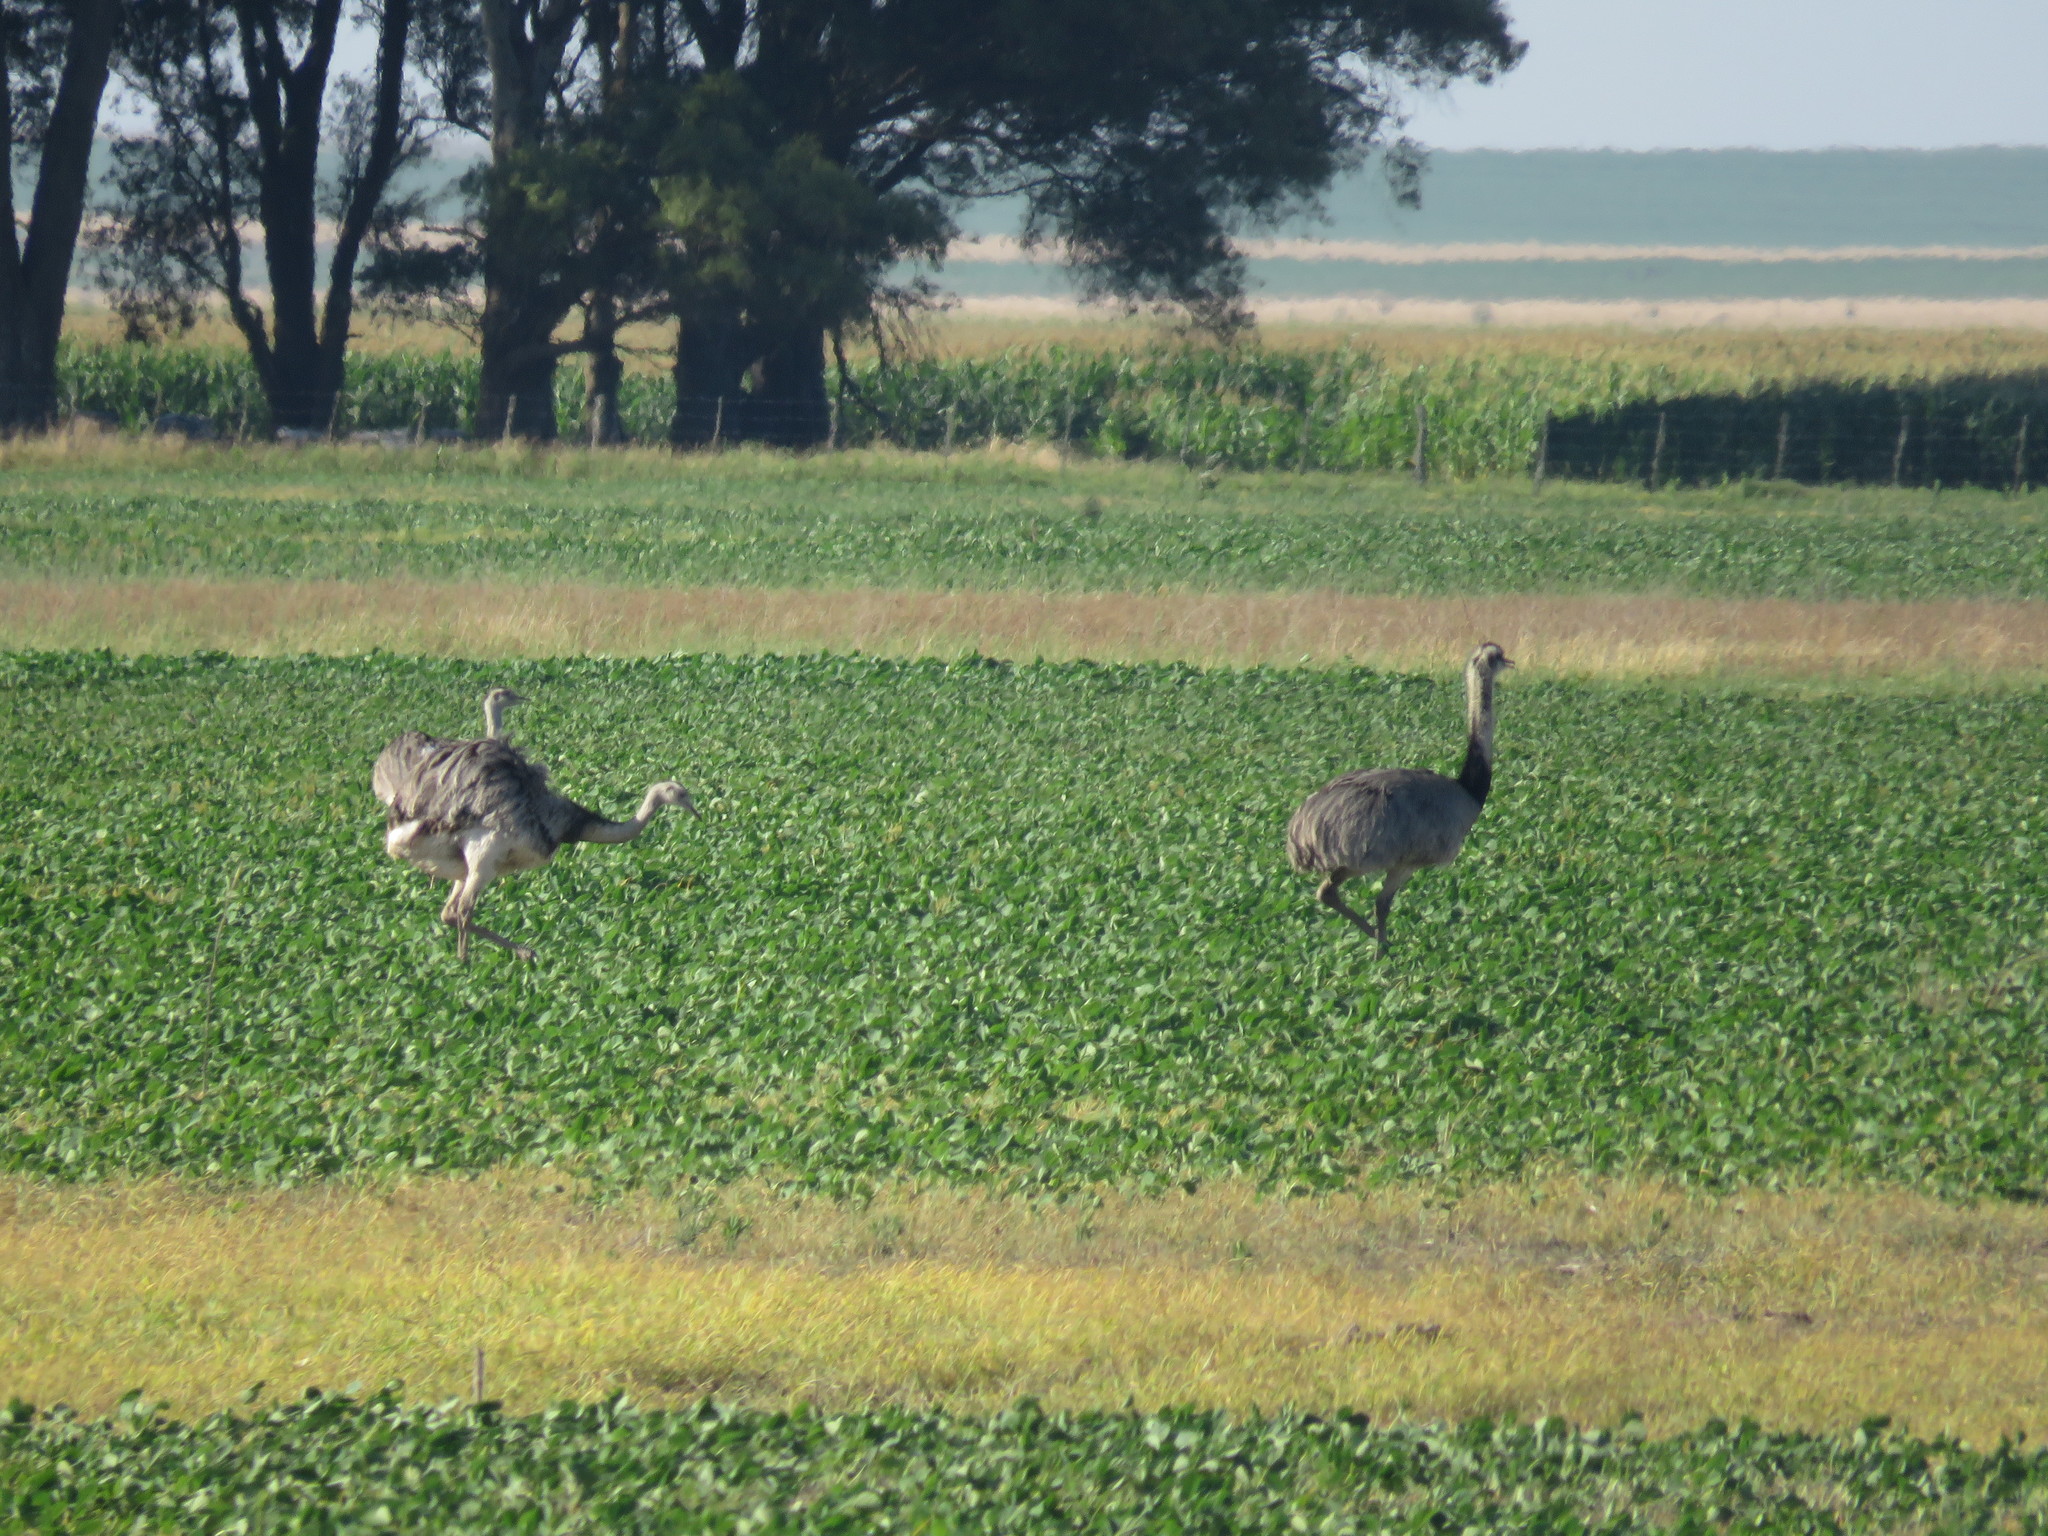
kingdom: Animalia
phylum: Chordata
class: Aves
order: Rheiformes
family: Rheidae
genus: Rhea
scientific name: Rhea americana
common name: Greater rhea
